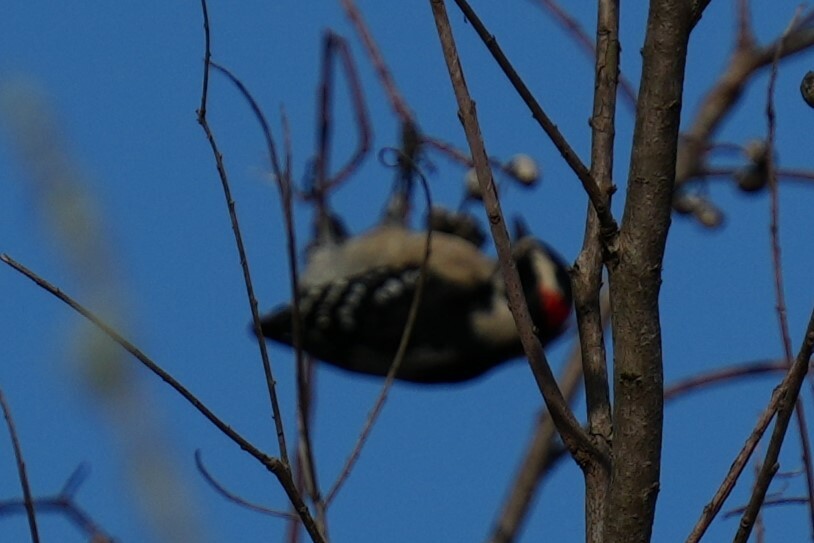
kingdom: Animalia
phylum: Chordata
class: Aves
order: Piciformes
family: Picidae
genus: Dryobates
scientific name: Dryobates pubescens
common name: Downy woodpecker
